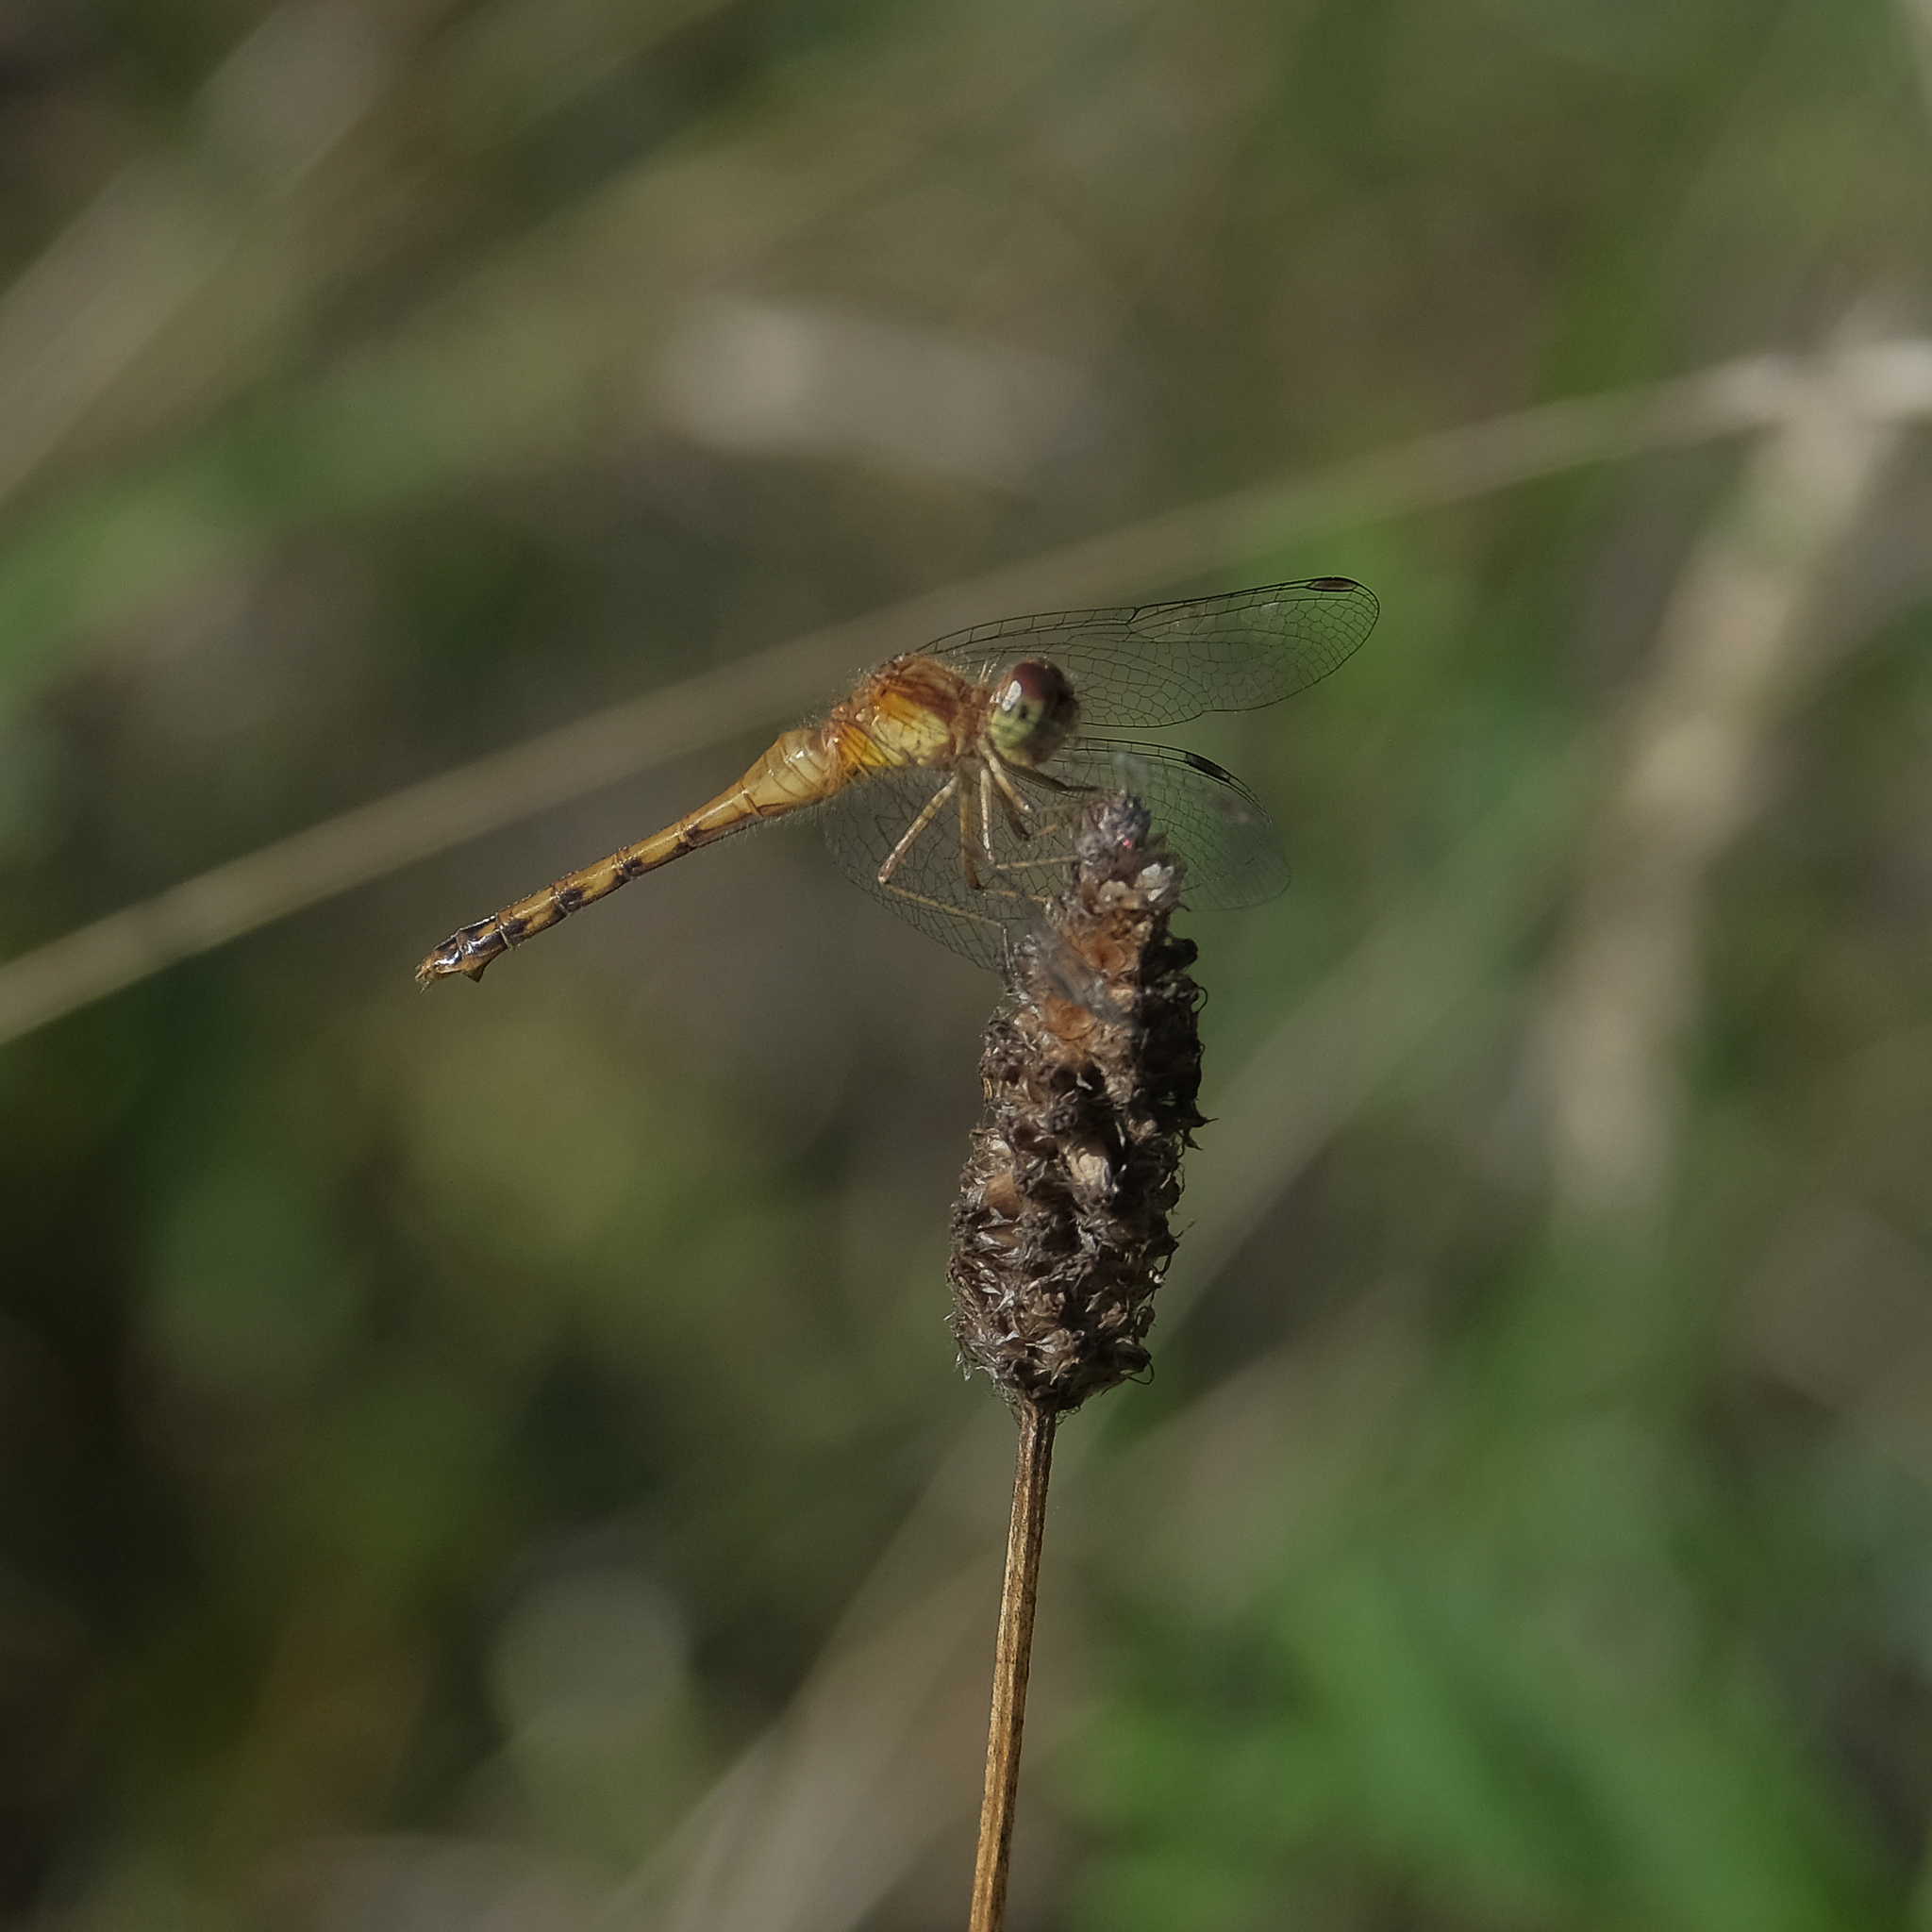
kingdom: Animalia
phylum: Arthropoda
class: Insecta
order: Odonata
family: Libellulidae
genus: Sympetrum
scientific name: Sympetrum vicinum
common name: Autumn meadowhawk
